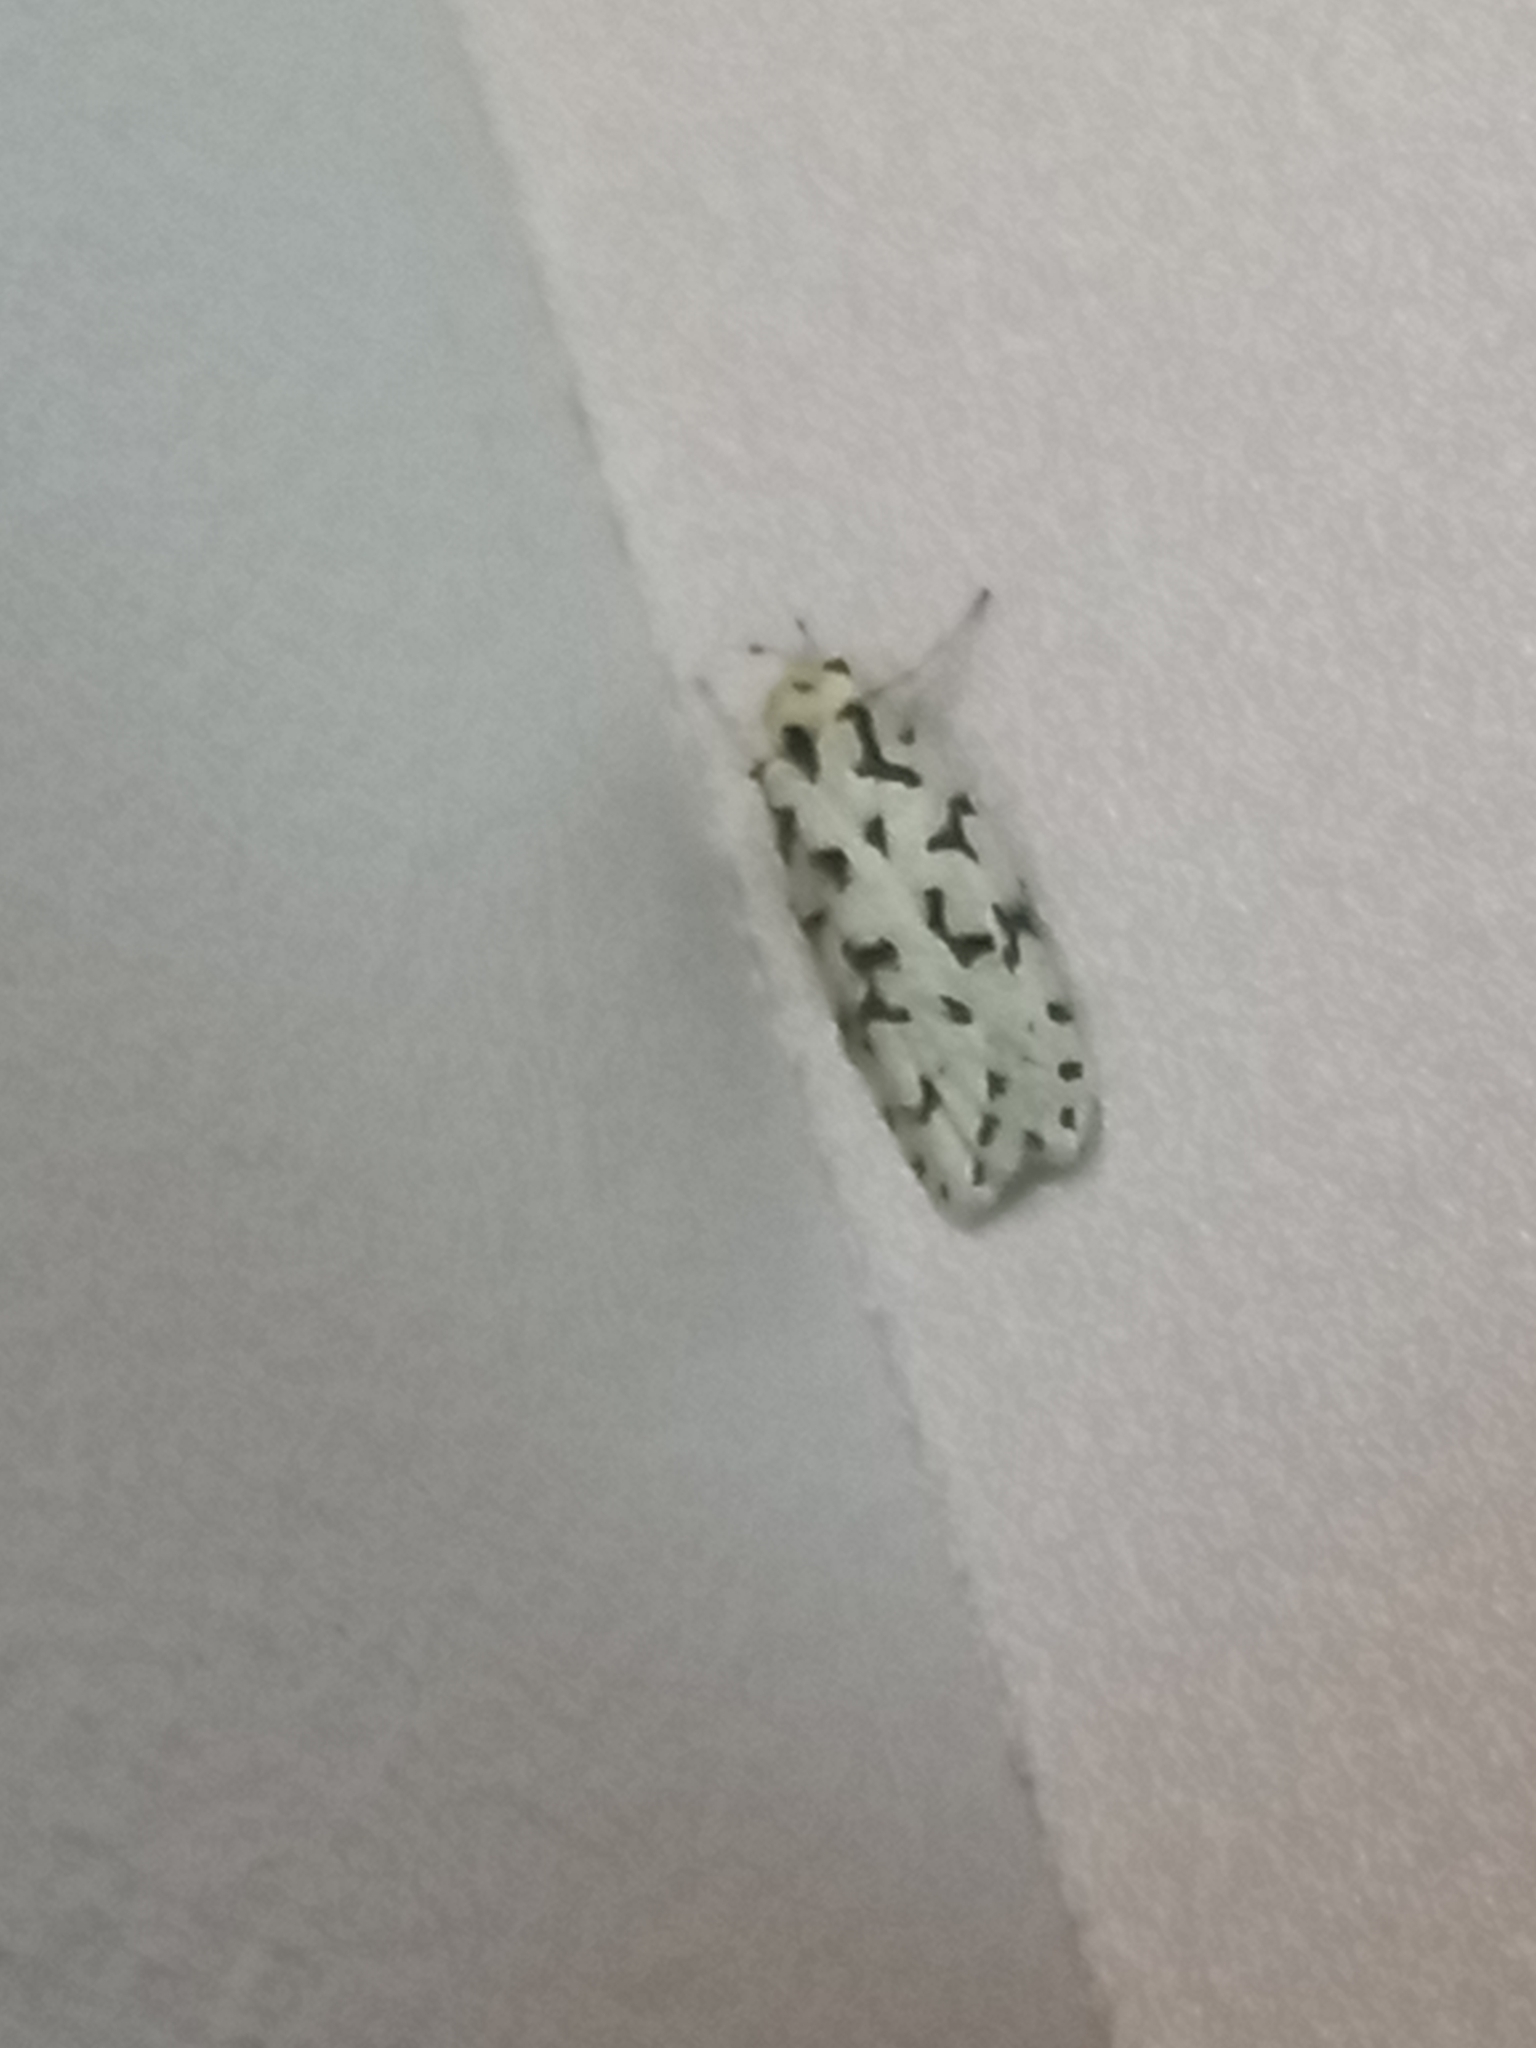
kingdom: Animalia
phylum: Arthropoda
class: Insecta
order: Lepidoptera
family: Oecophoridae
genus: Izatha
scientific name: Izatha huttoni
